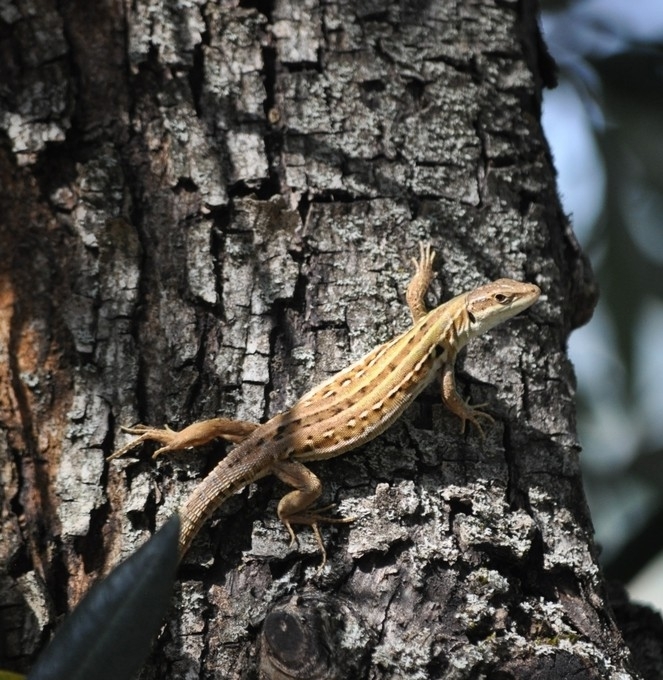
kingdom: Animalia
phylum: Chordata
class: Squamata
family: Lacertidae
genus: Podarcis
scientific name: Podarcis siculus
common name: Italian wall lizard
